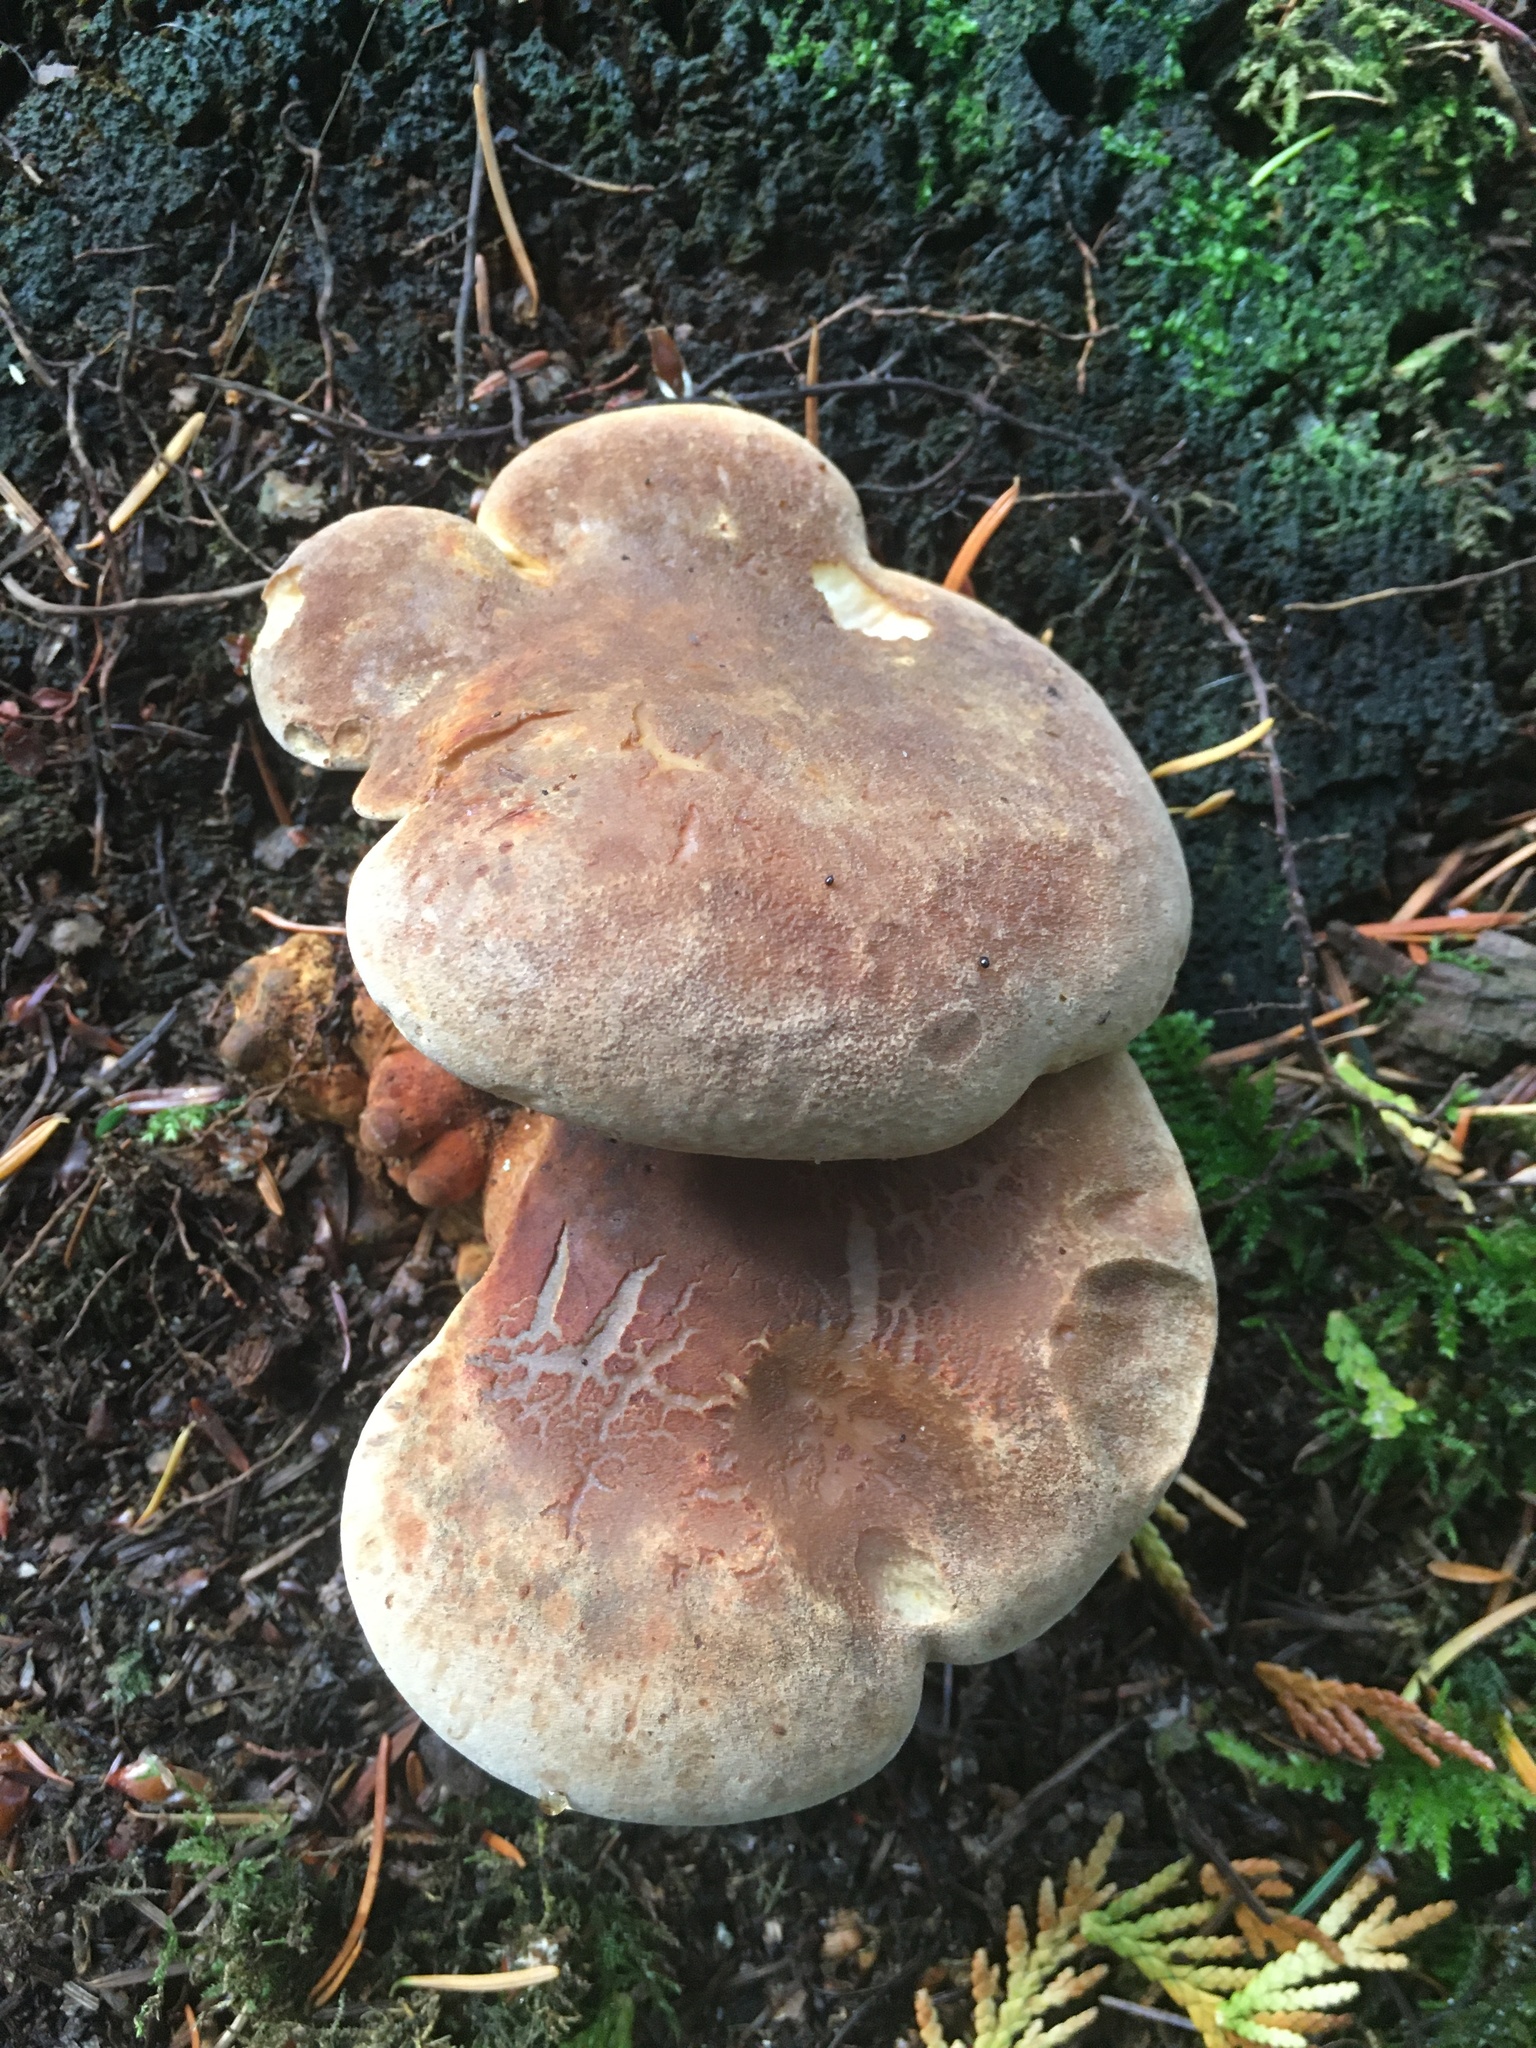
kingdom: Fungi
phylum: Basidiomycota
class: Agaricomycetes
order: Boletales
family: Tapinellaceae
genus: Tapinella
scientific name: Tapinella atrotomentosa
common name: Velvet rollrim
